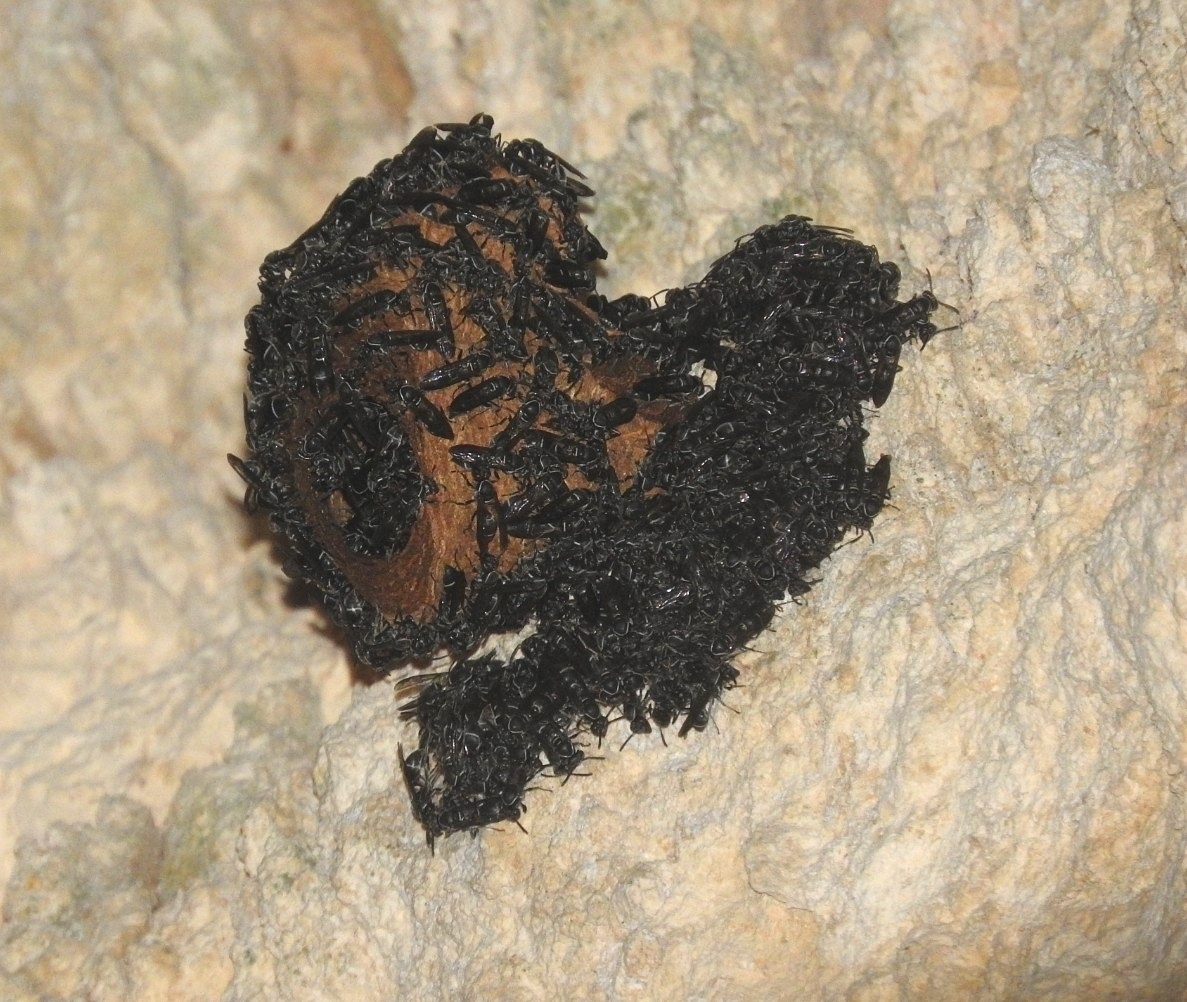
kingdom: Animalia
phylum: Arthropoda
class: Insecta
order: Hymenoptera
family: Eumenidae
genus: Polybia
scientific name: Polybia plebeja
